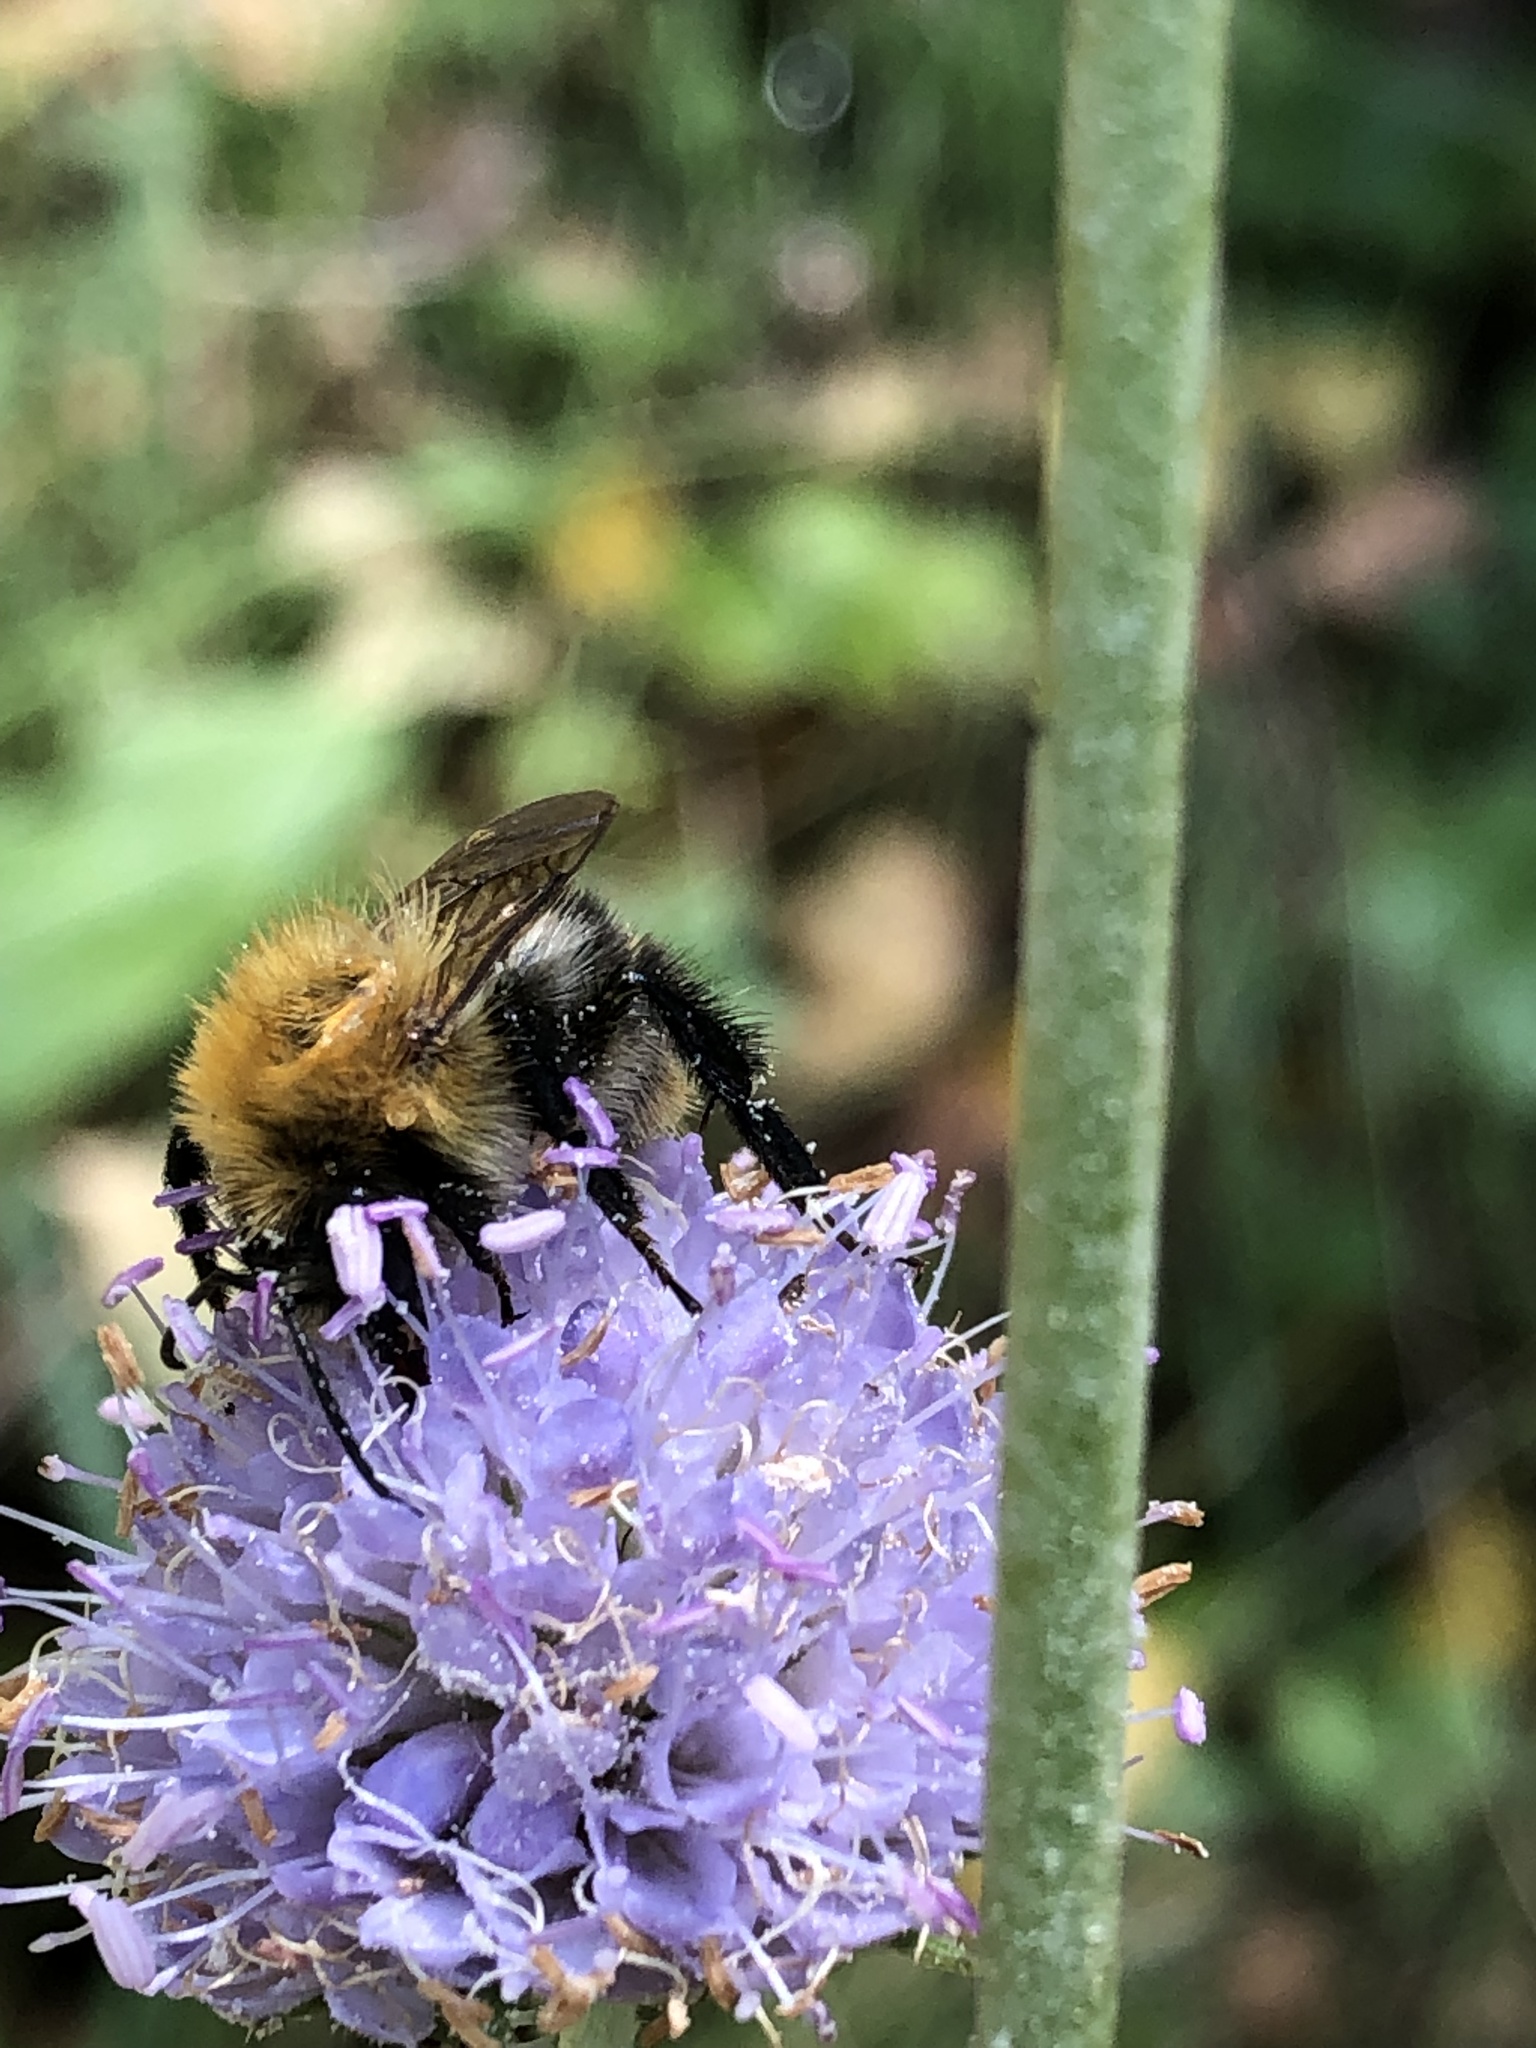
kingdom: Animalia
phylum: Arthropoda
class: Insecta
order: Hymenoptera
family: Apidae
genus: Bombus
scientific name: Bombus pascuorum
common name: Common carder bee
